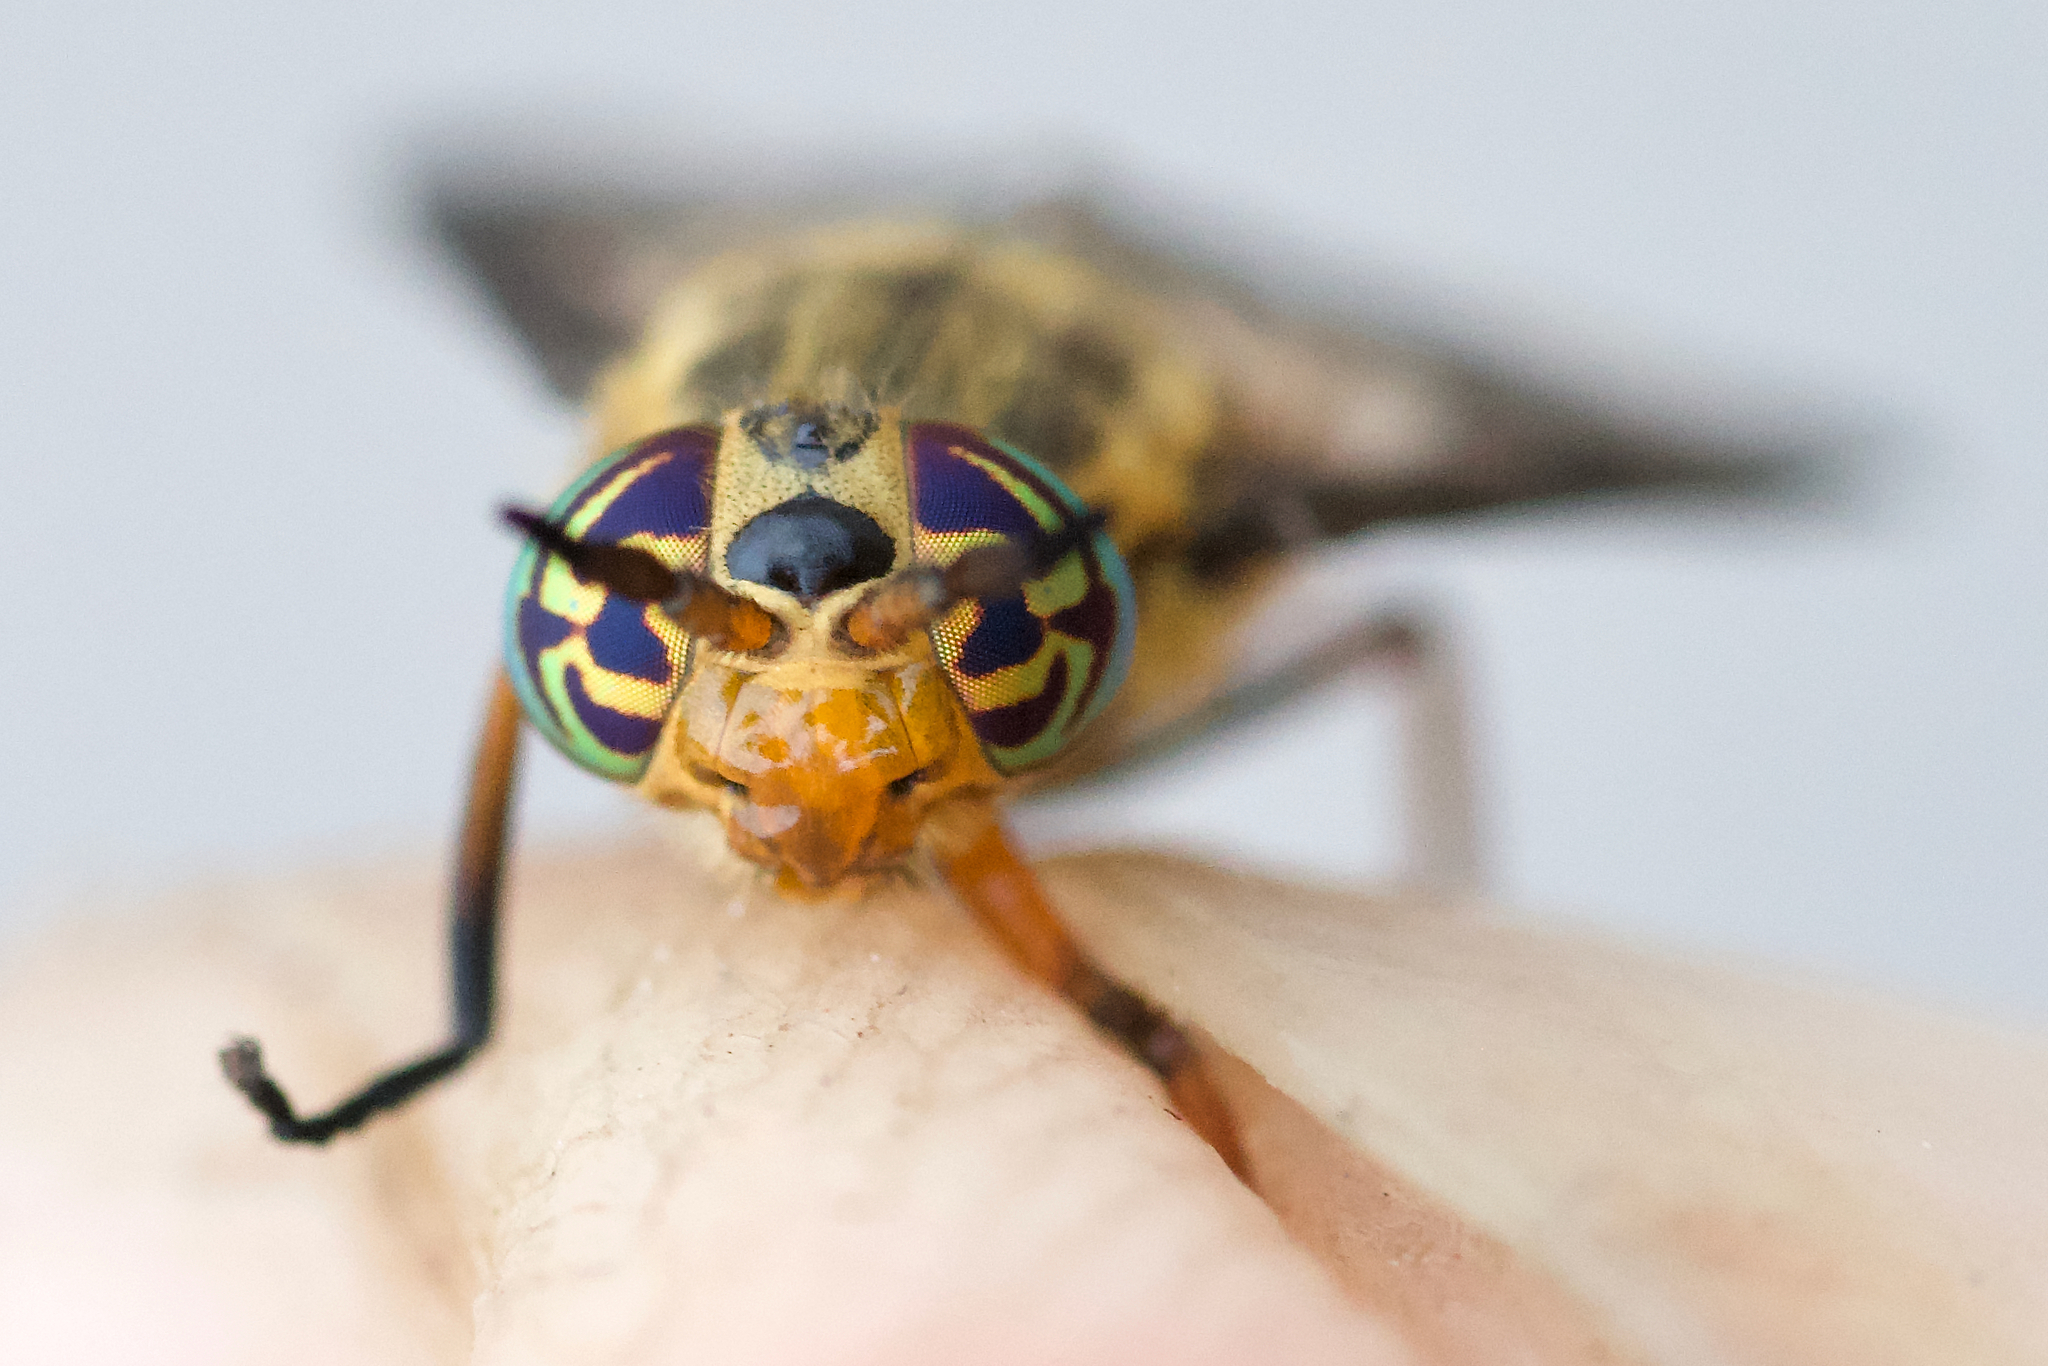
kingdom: Animalia
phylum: Arthropoda
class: Insecta
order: Diptera
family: Tabanidae
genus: Chrysops
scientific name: Chrysops montanus
